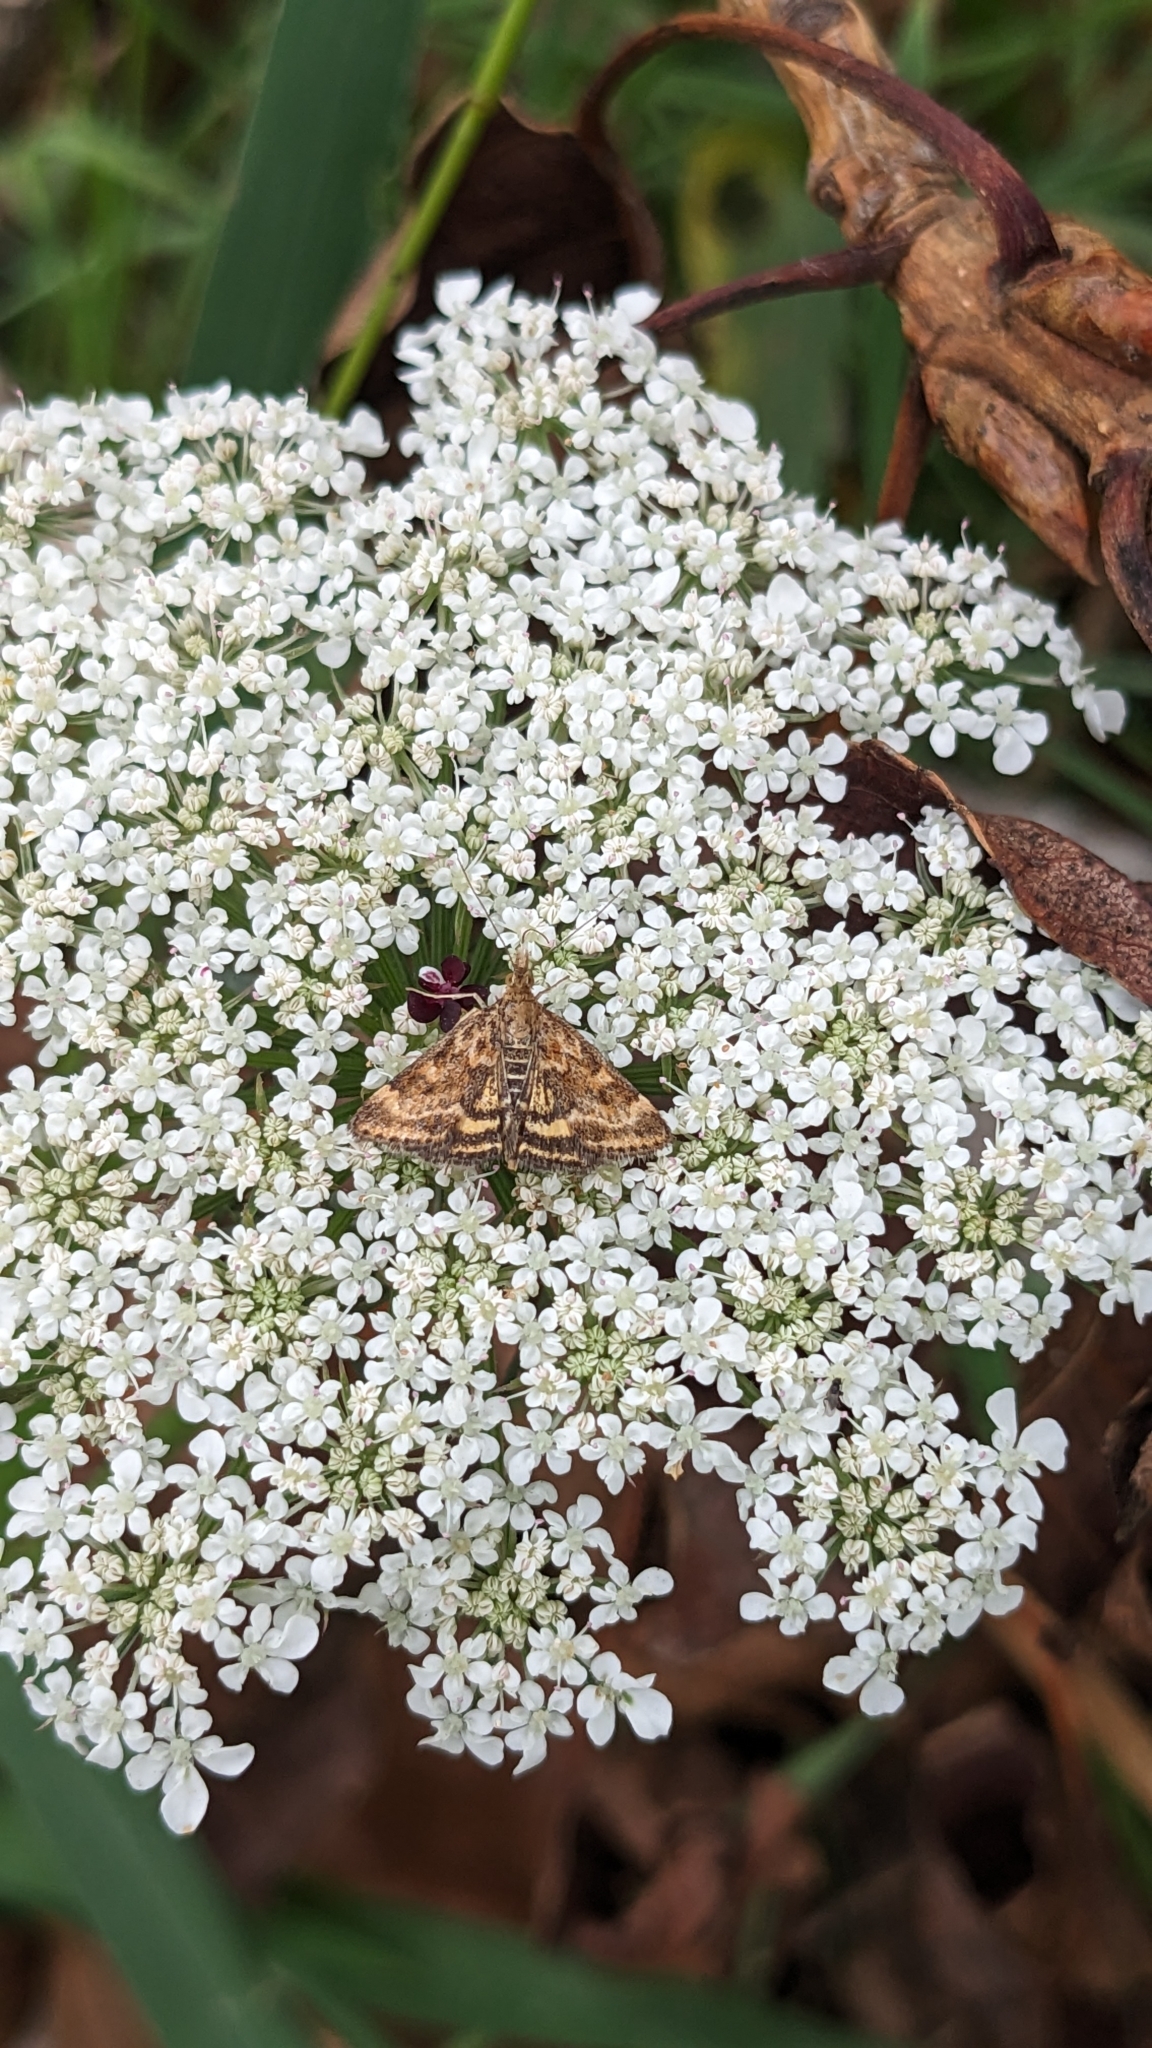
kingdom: Animalia
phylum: Arthropoda
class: Insecta
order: Lepidoptera
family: Crambidae
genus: Pyrausta
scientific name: Pyrausta despicata
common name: Straw-barred pearl
